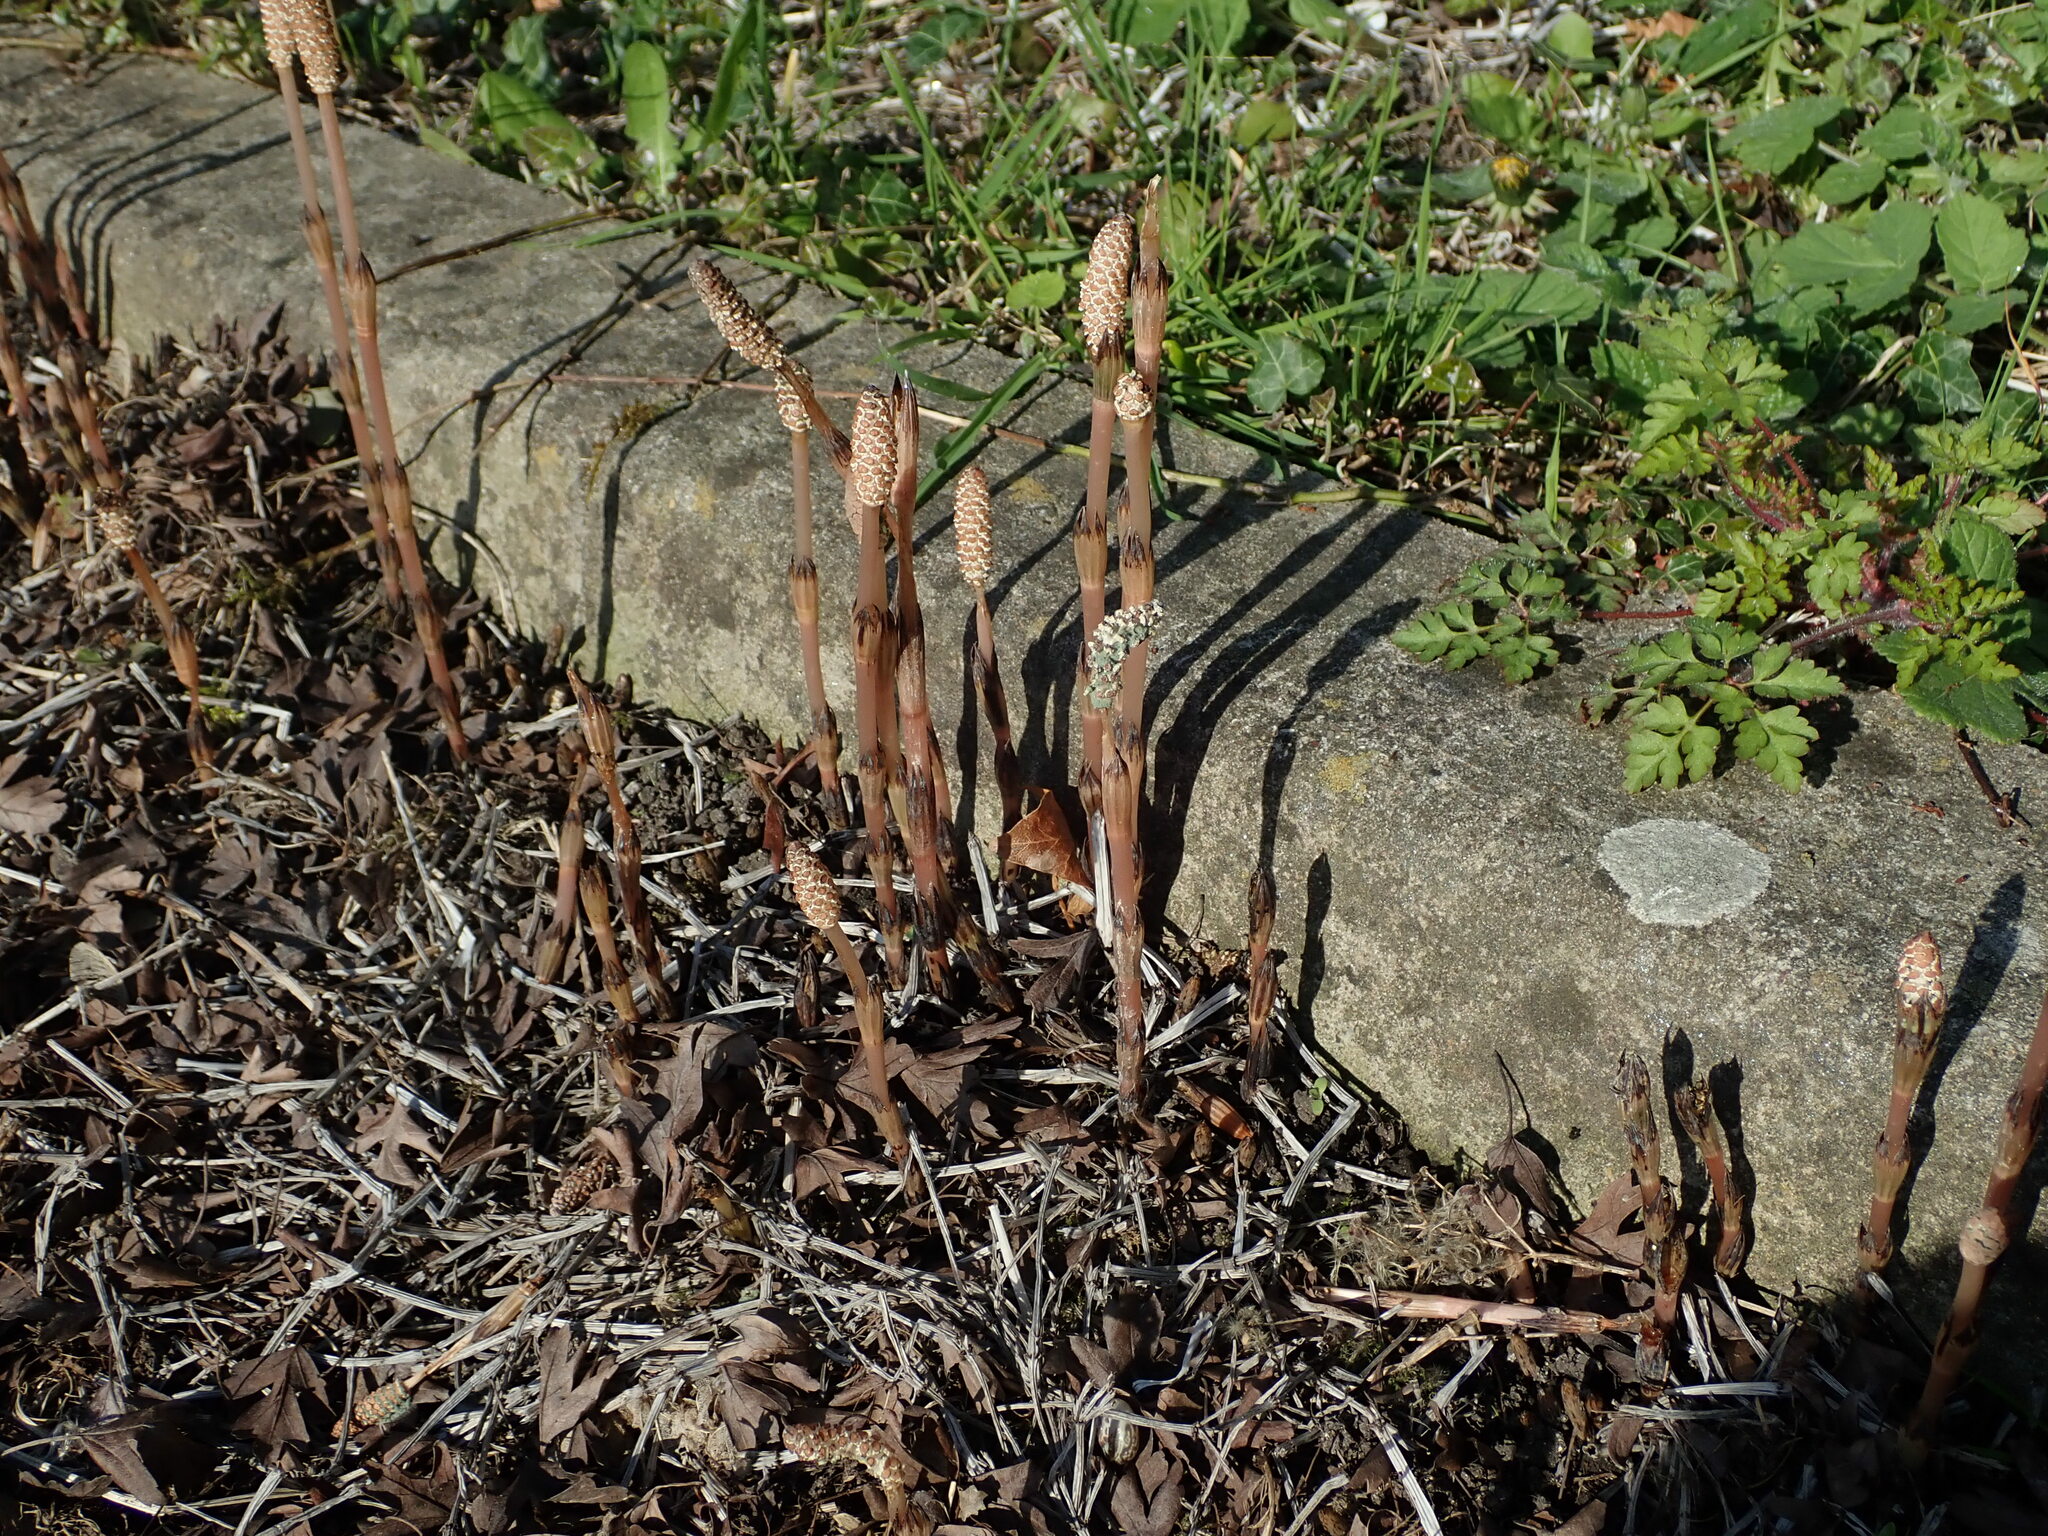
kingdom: Plantae
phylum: Tracheophyta
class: Polypodiopsida
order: Equisetales
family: Equisetaceae
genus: Equisetum
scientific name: Equisetum arvense
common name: Field horsetail
